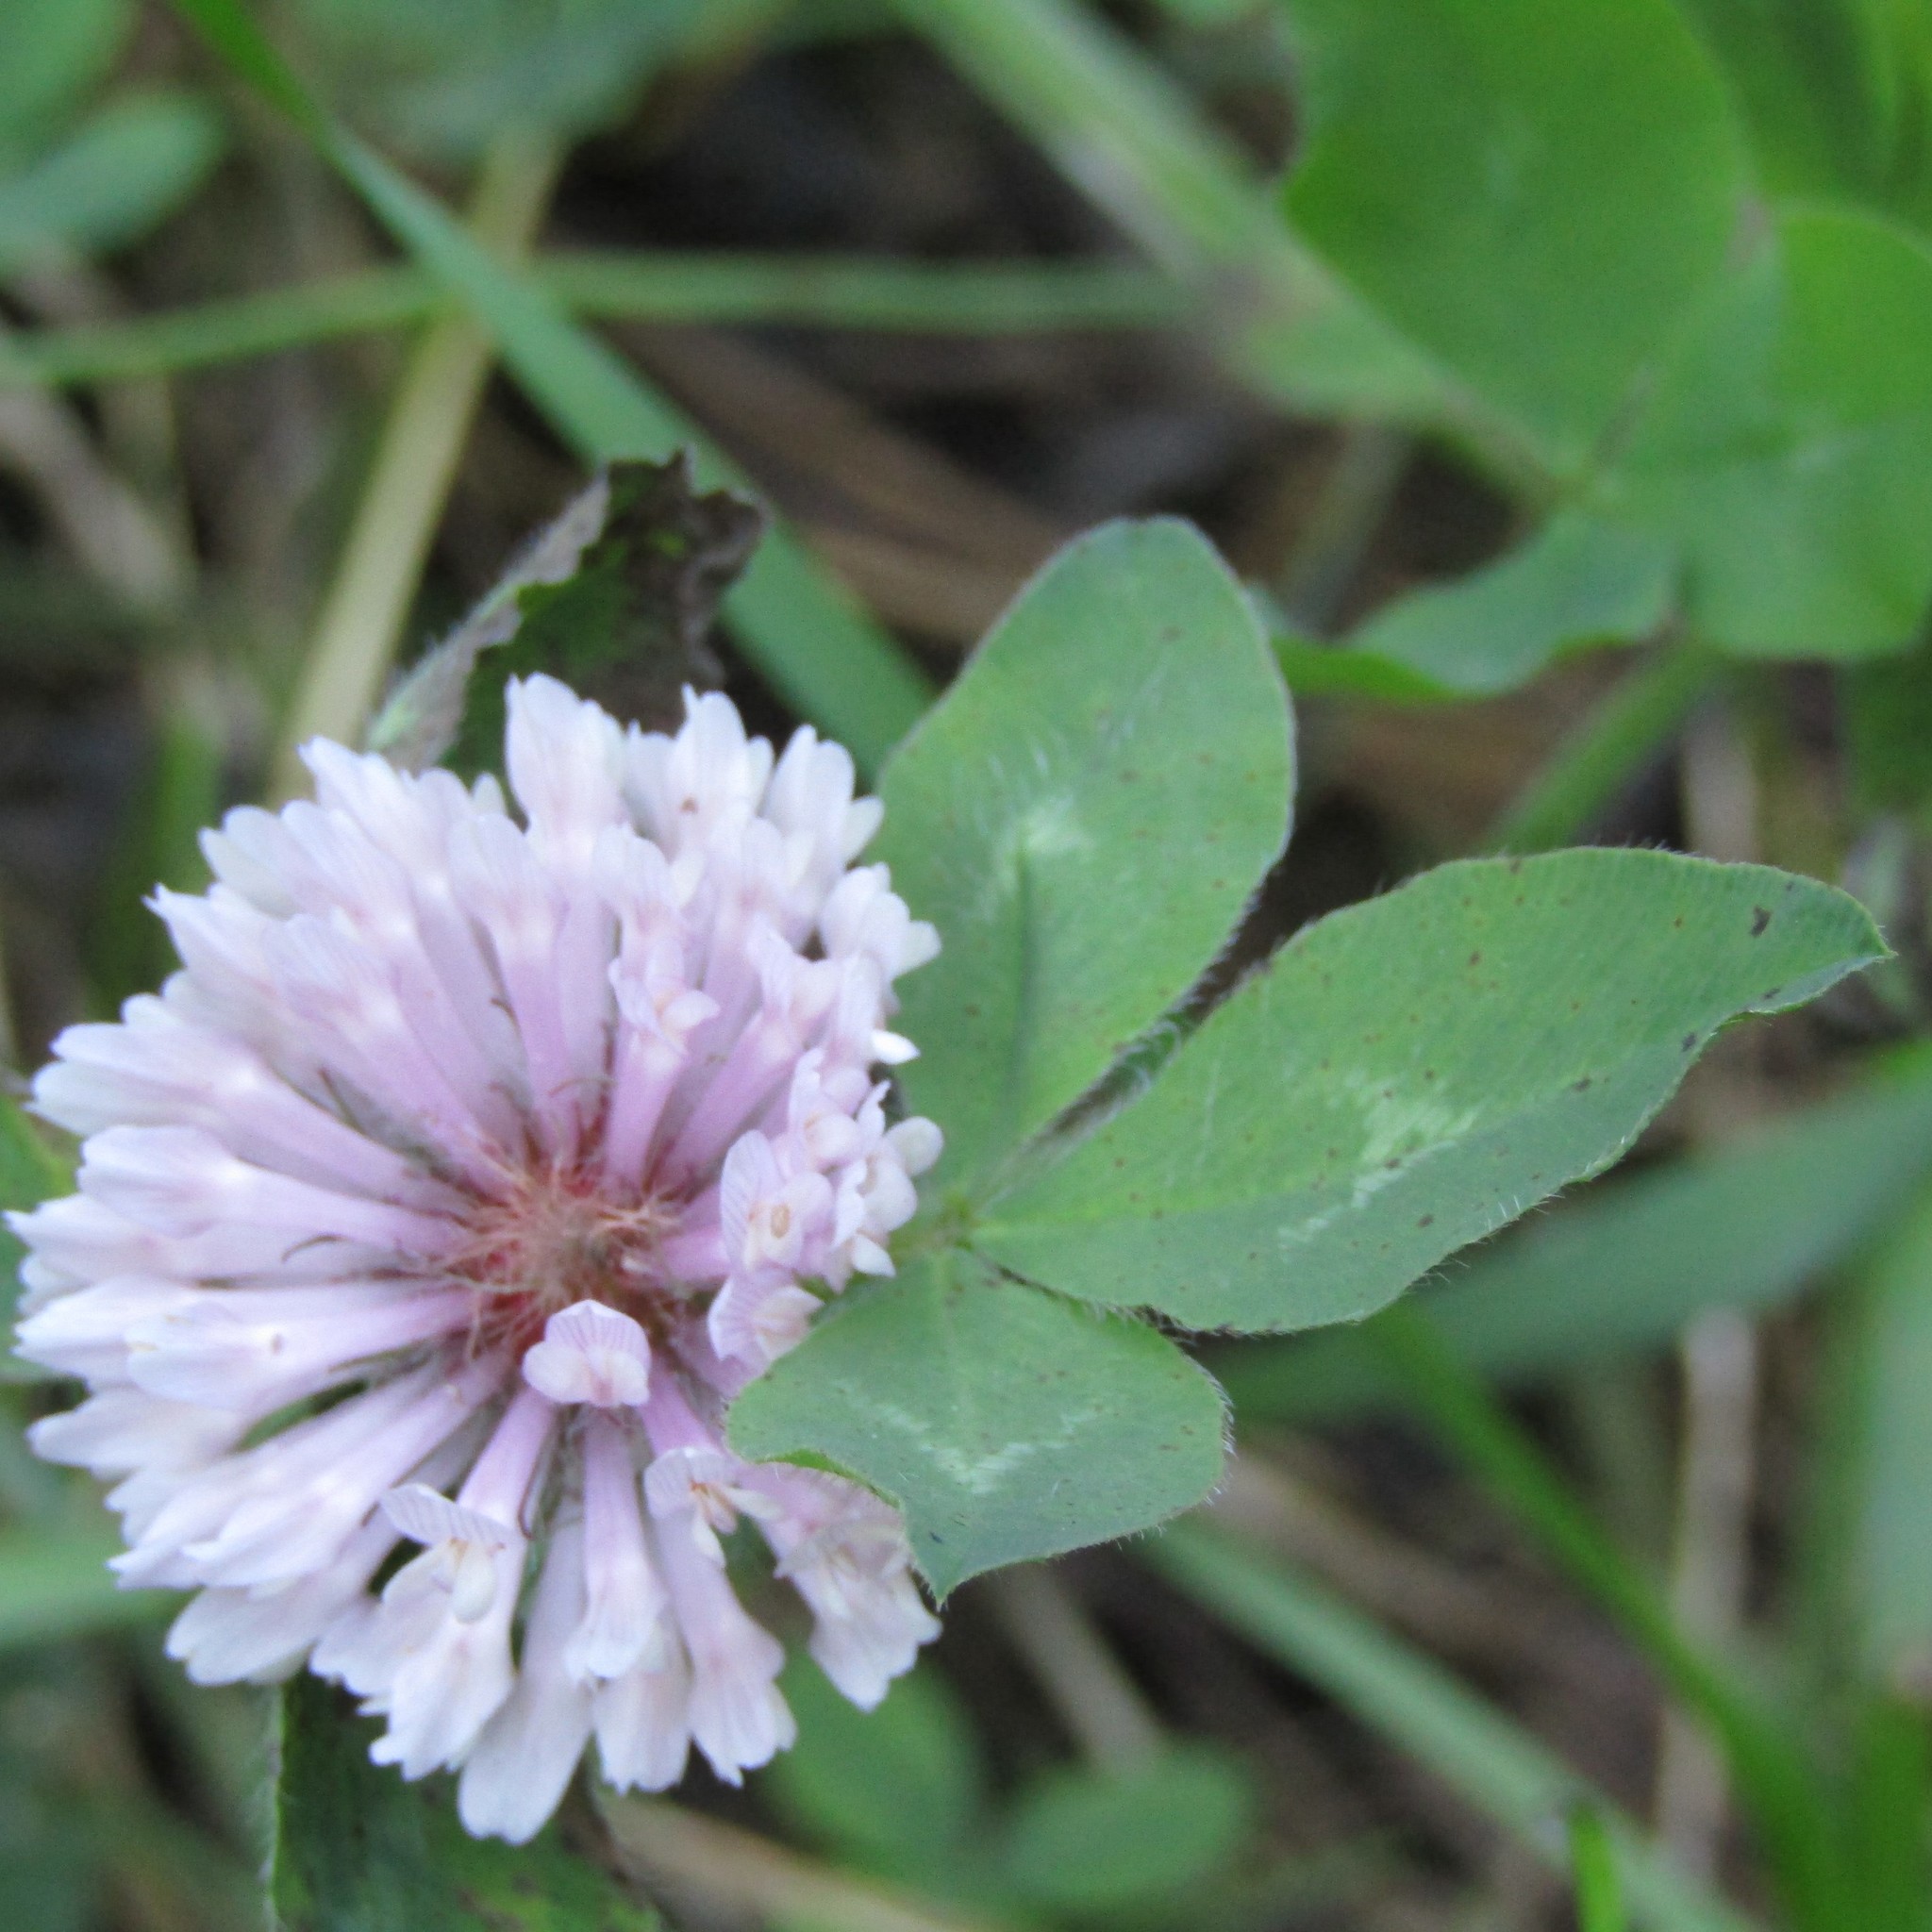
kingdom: Plantae
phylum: Tracheophyta
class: Magnoliopsida
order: Fabales
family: Fabaceae
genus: Trifolium
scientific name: Trifolium pratense
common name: Red clover
